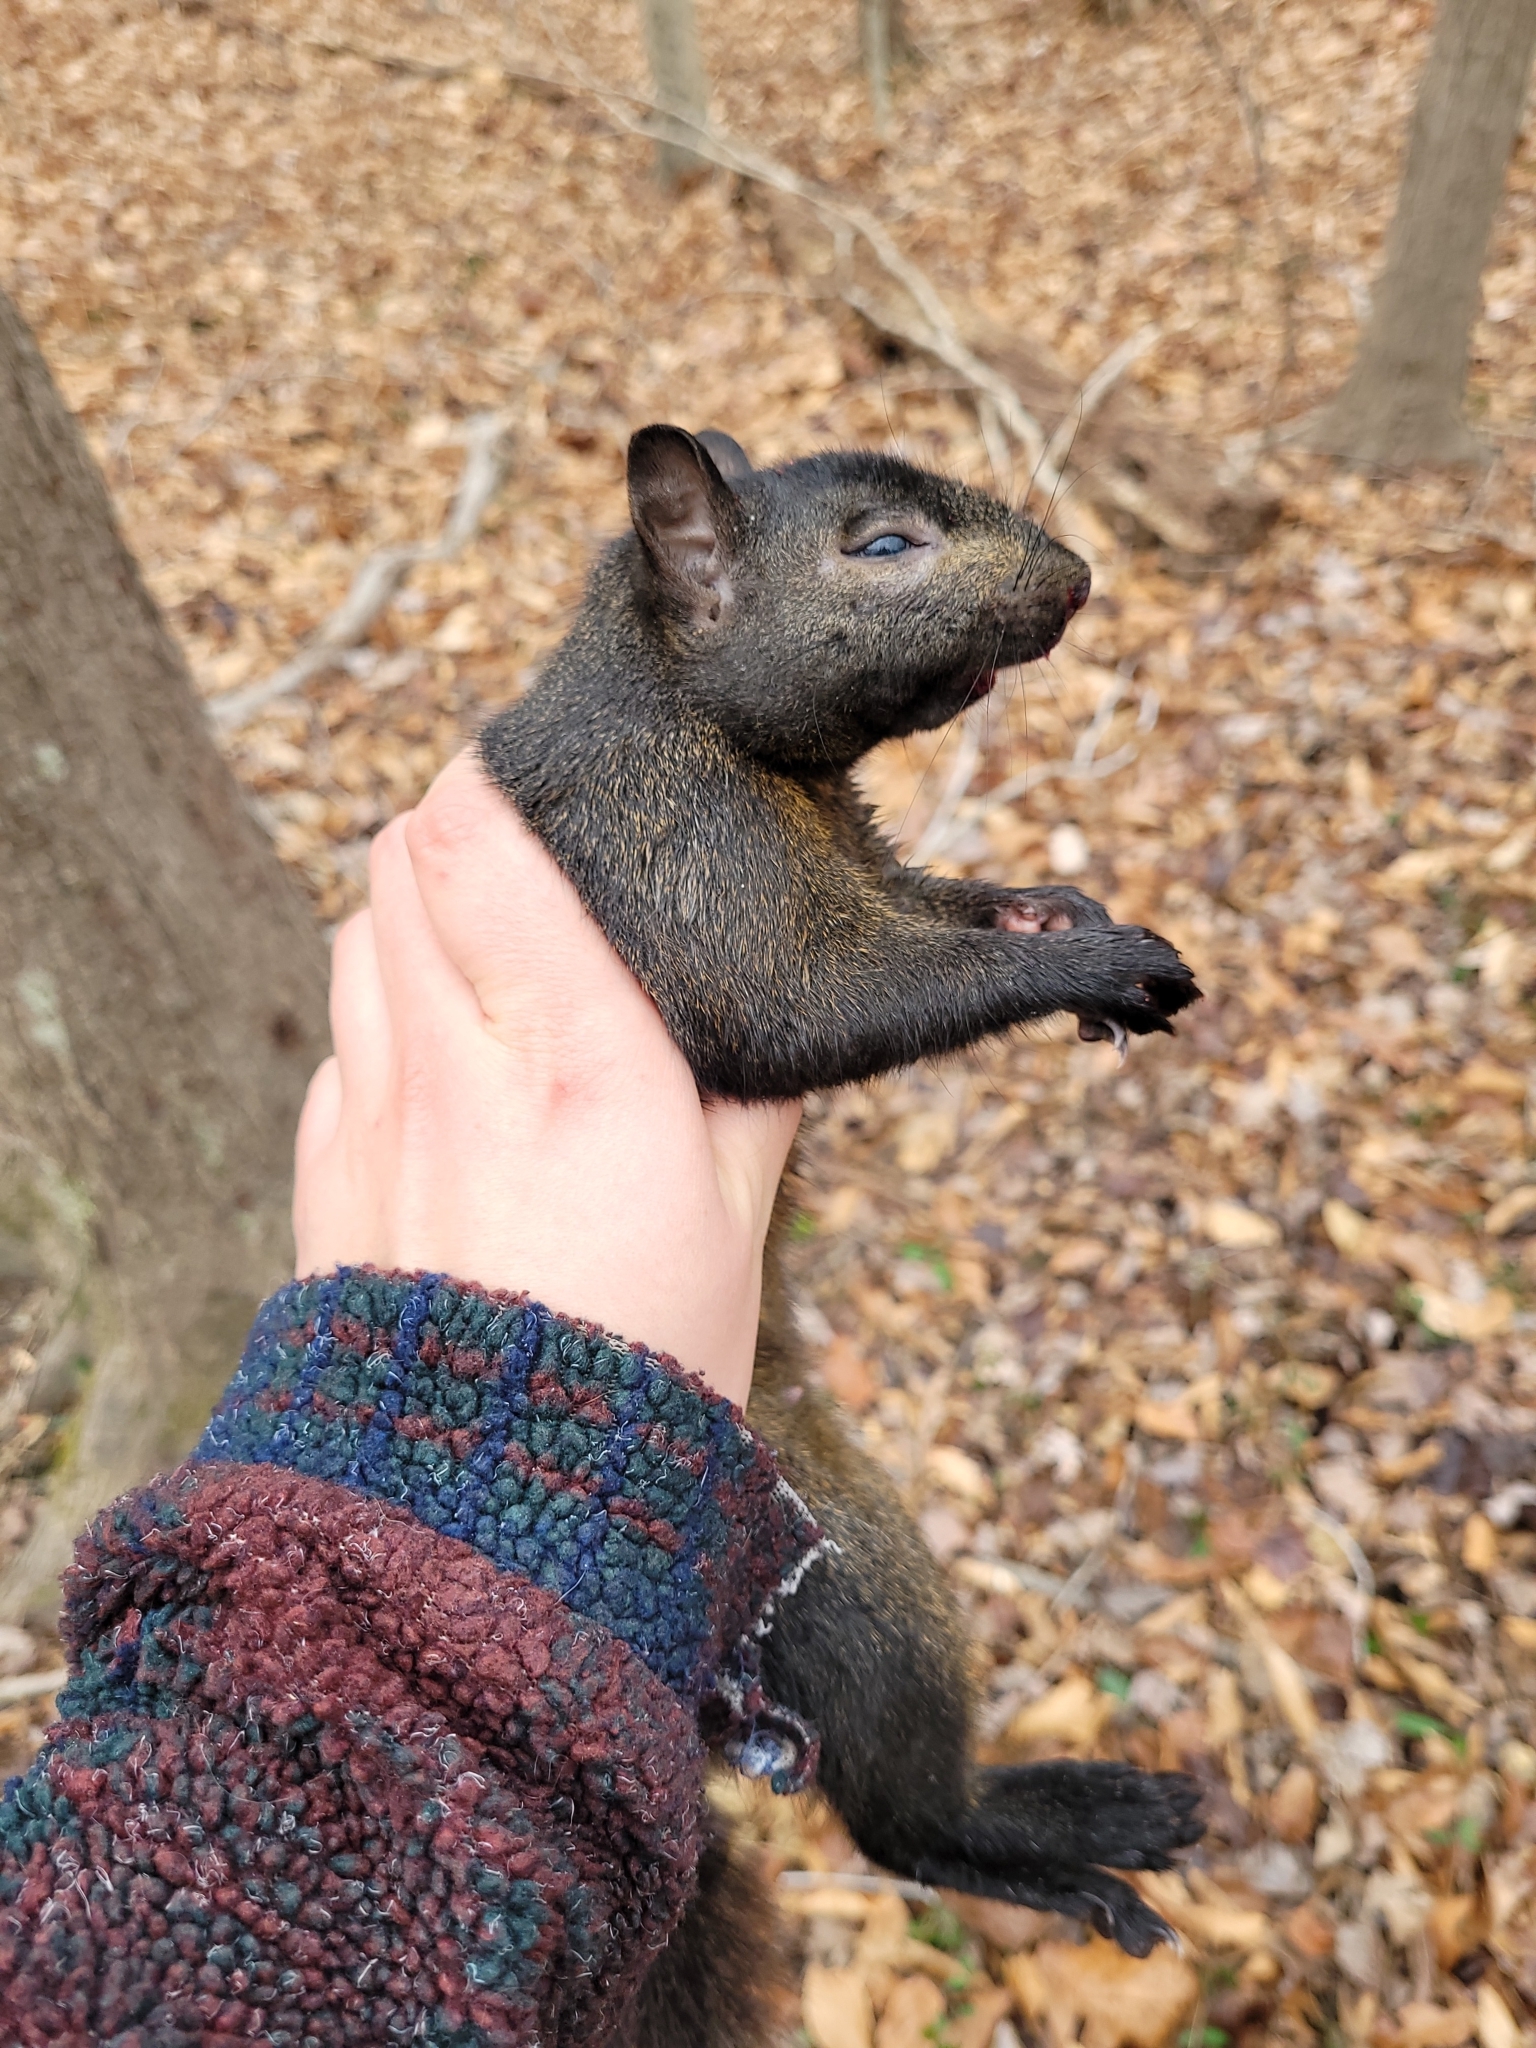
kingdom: Animalia
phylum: Chordata
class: Mammalia
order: Rodentia
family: Sciuridae
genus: Sciurus
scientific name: Sciurus carolinensis
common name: Eastern gray squirrel
